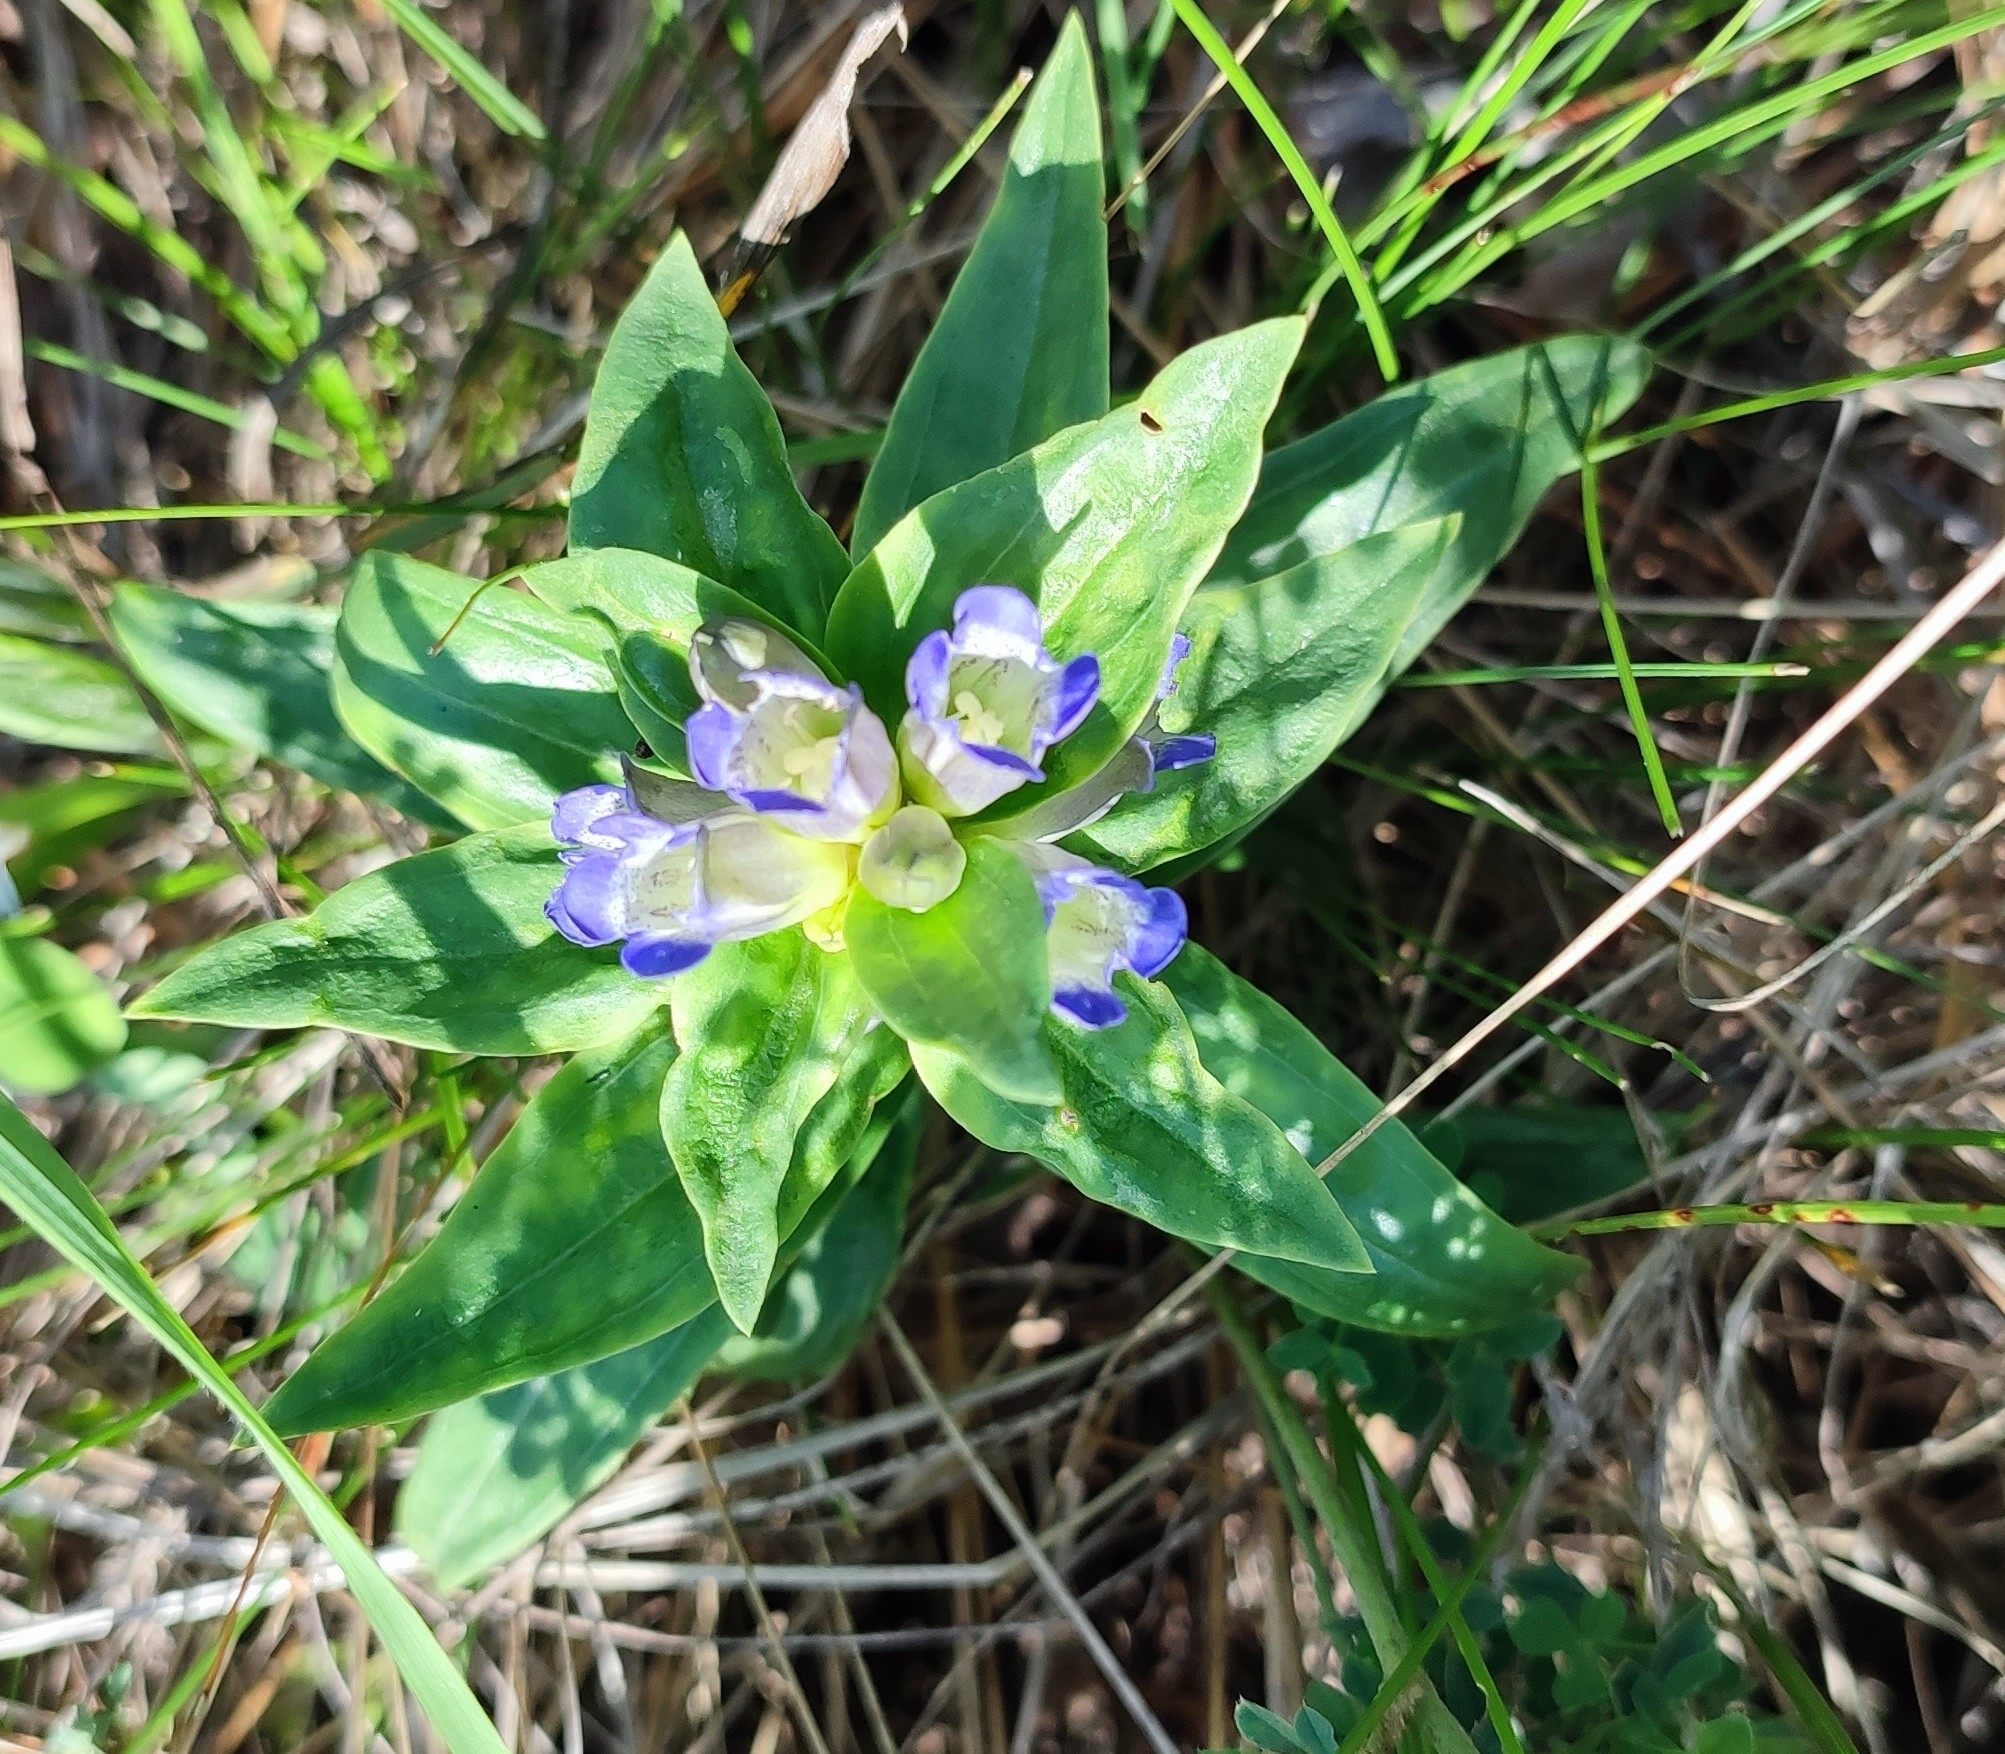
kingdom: Plantae
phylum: Tracheophyta
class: Magnoliopsida
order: Gentianales
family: Gentianaceae
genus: Gentiana
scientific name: Gentiana cruciata
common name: Cross gentian
